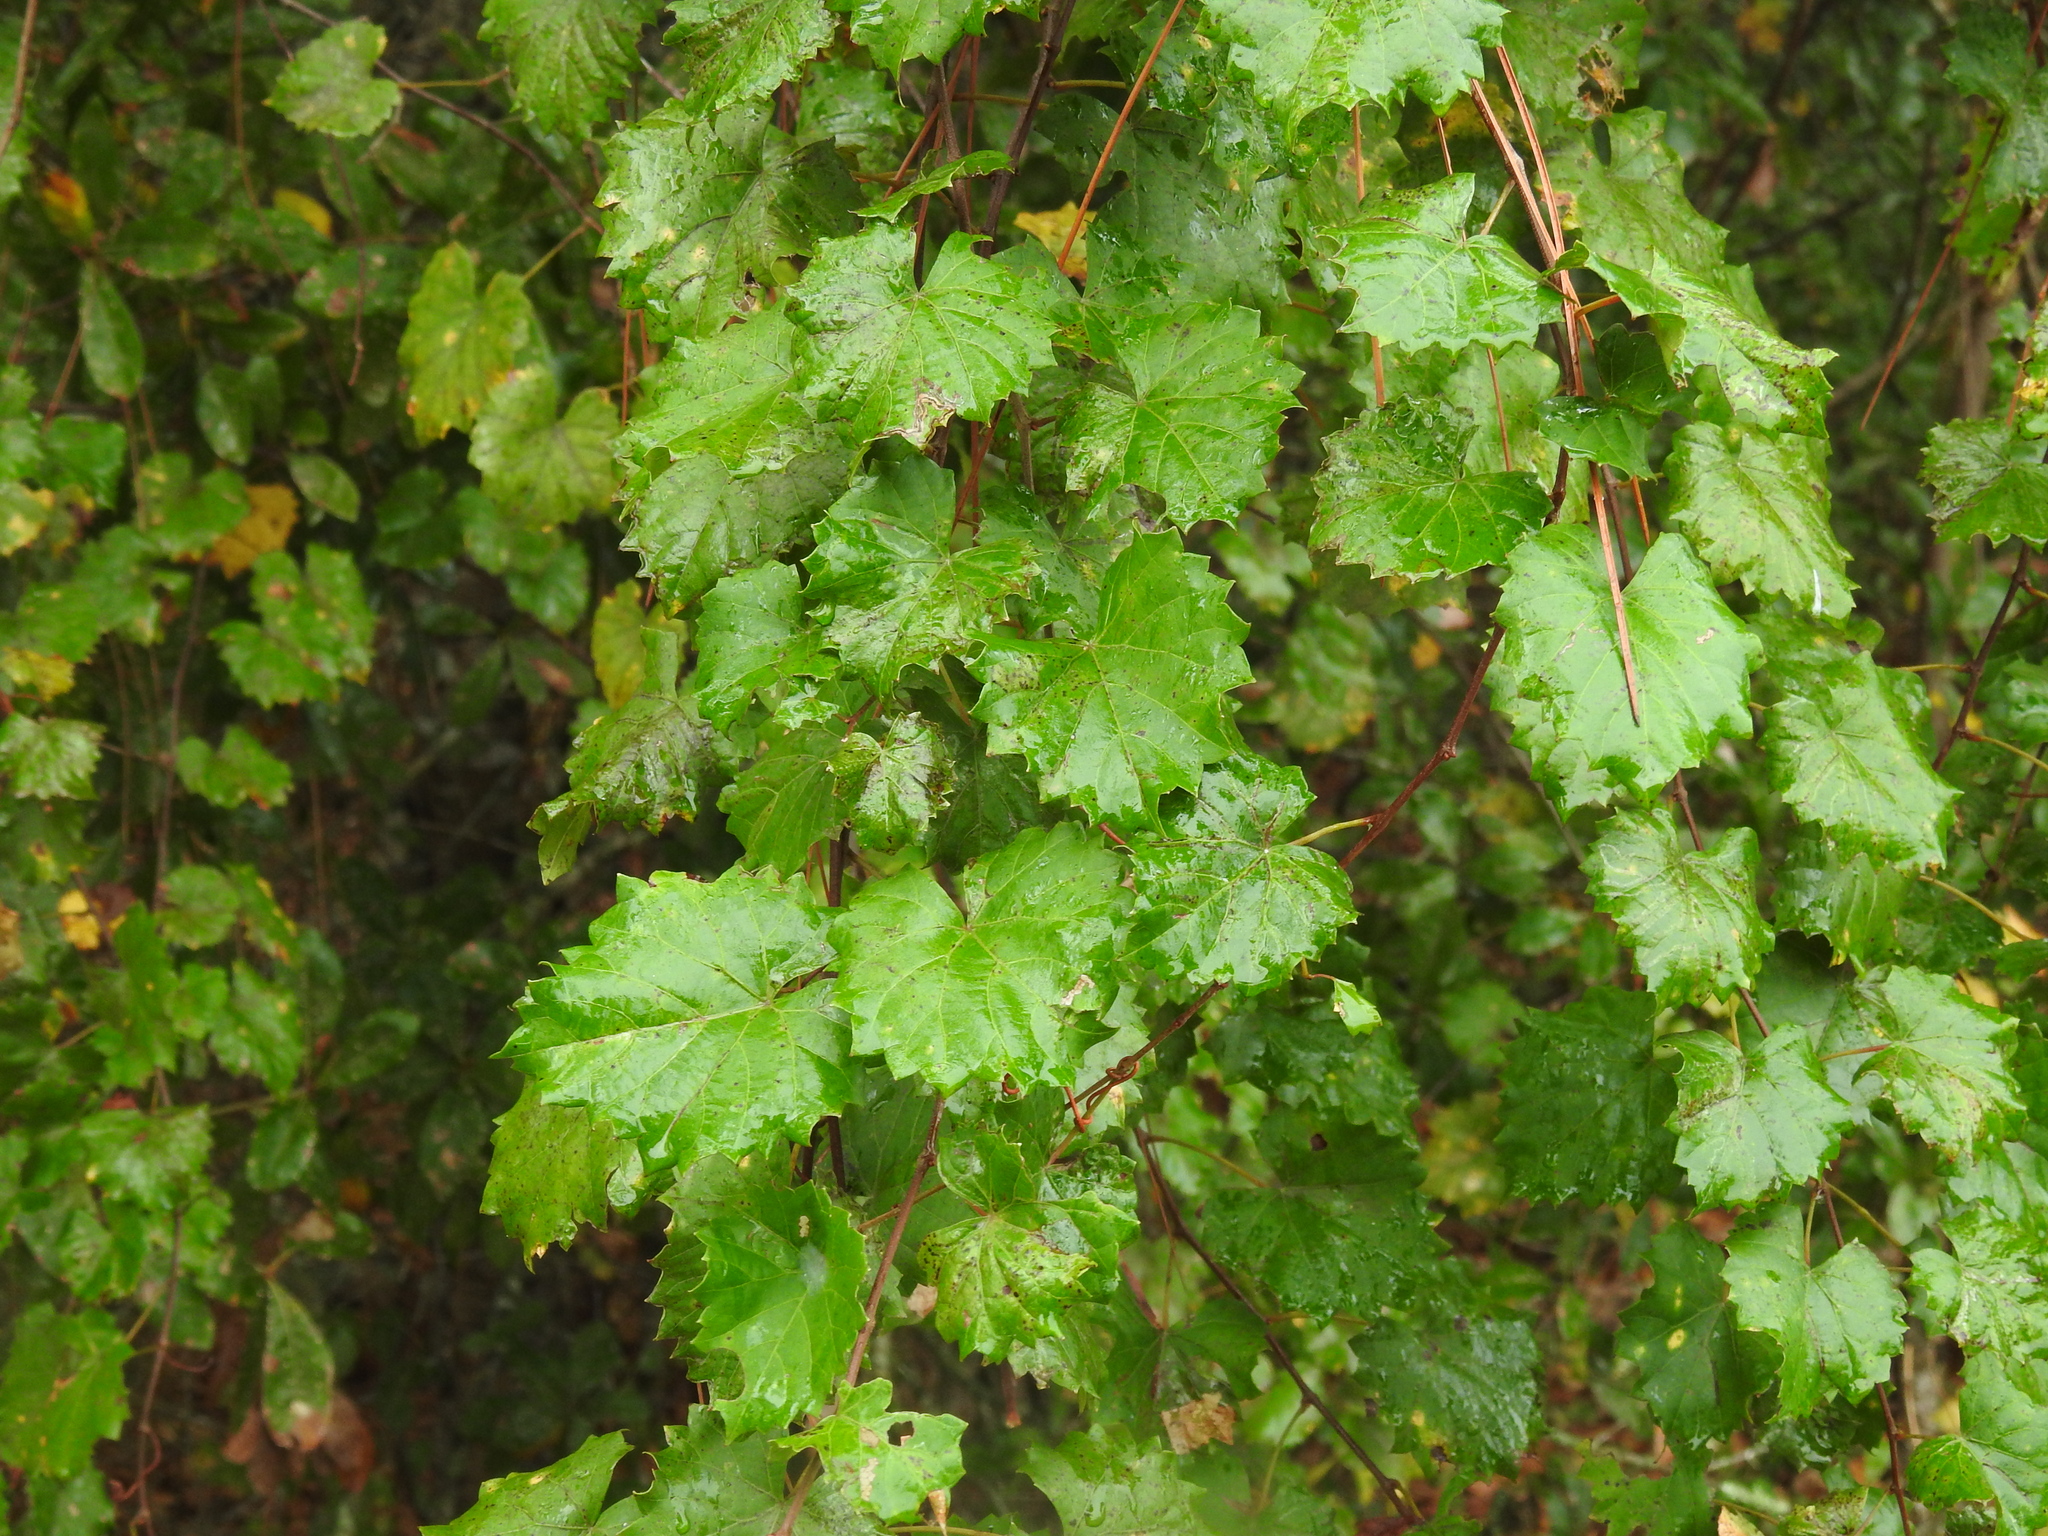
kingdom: Plantae
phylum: Tracheophyta
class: Magnoliopsida
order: Vitales
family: Vitaceae
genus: Vitis
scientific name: Vitis rotundifolia
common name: Muscadine grape
